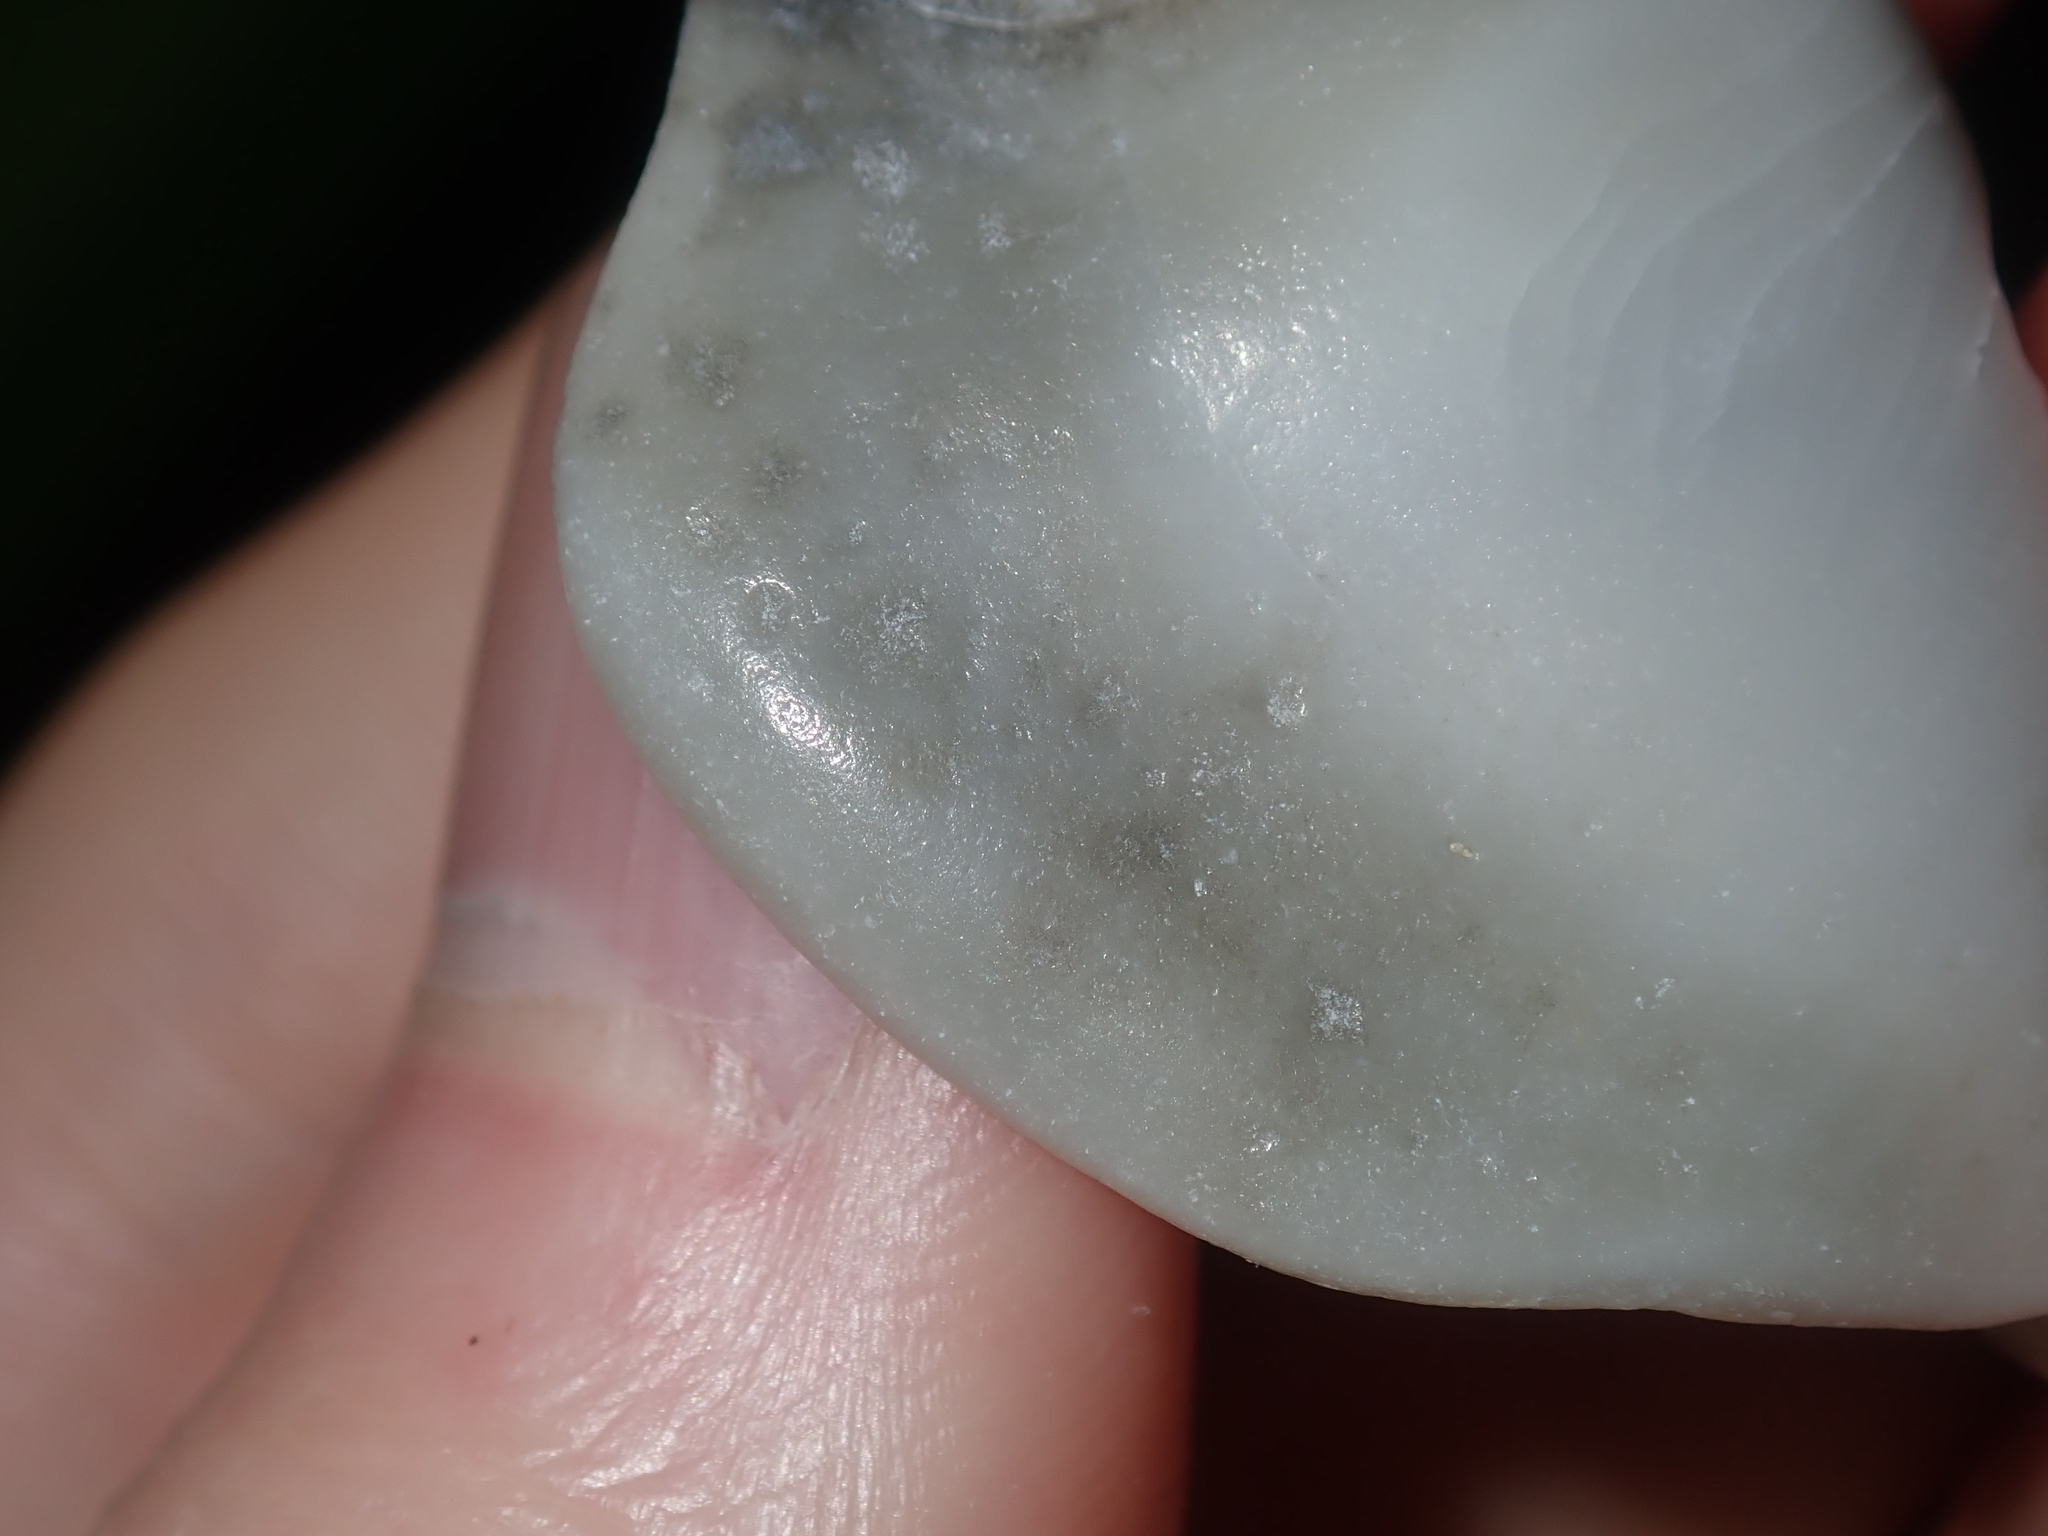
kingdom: Animalia
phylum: Mollusca
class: Gastropoda
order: Littorinimorpha
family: Strombidae
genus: Doxander
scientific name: Doxander campbellii
